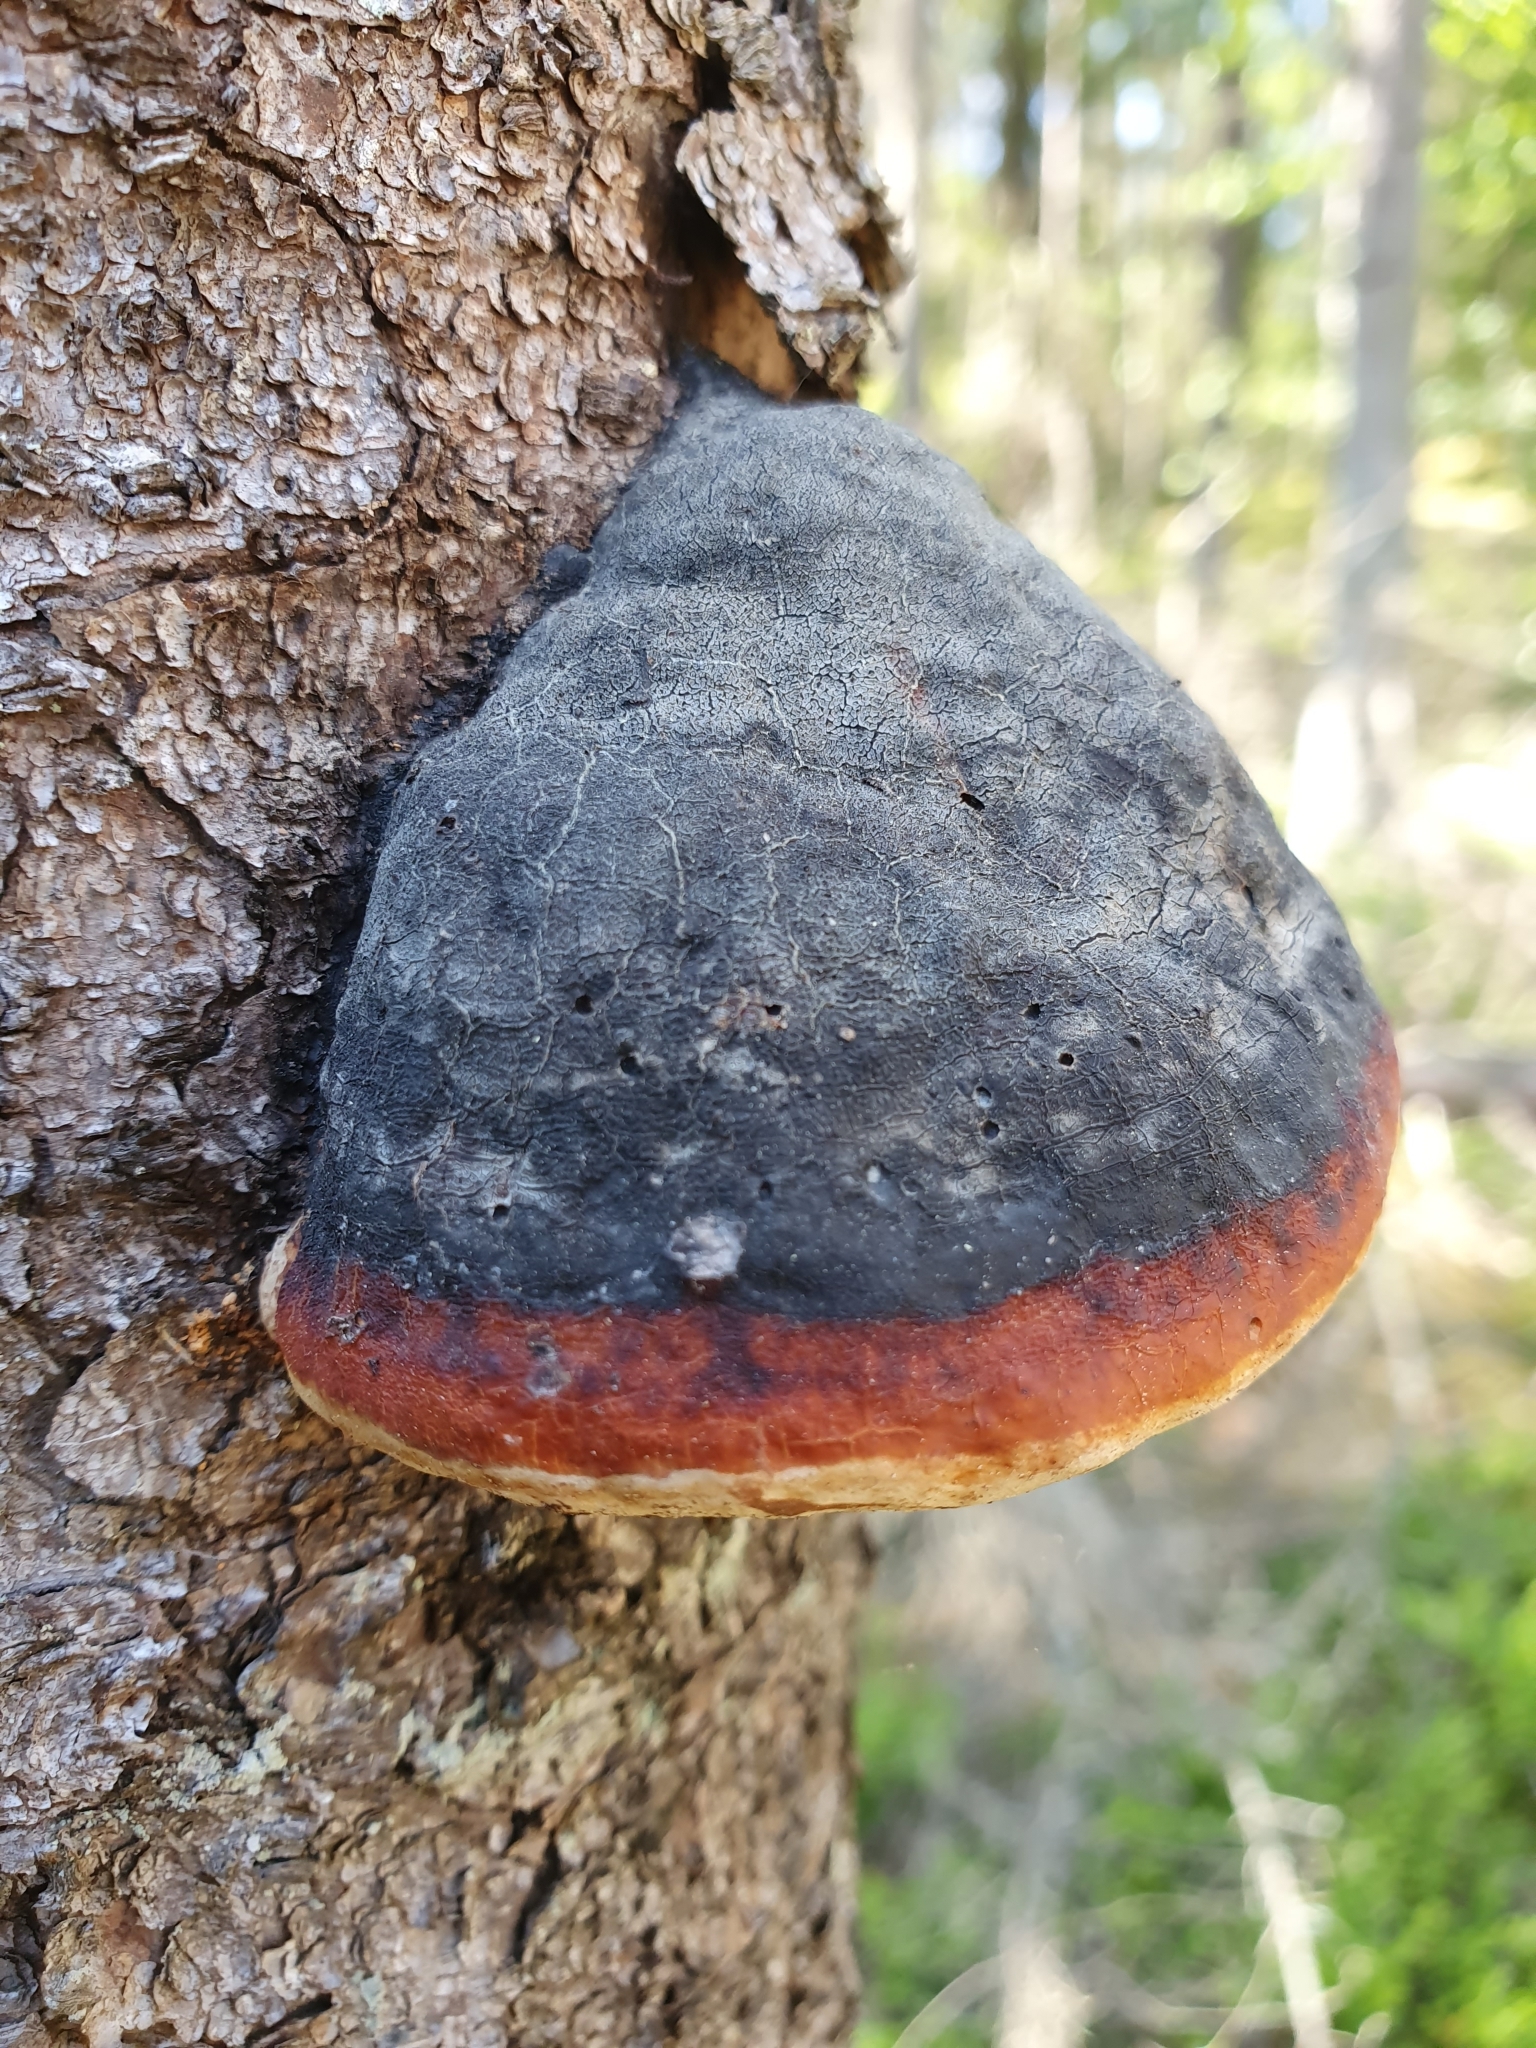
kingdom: Fungi
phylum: Basidiomycota
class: Agaricomycetes
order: Polyporales
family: Fomitopsidaceae
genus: Fomitopsis
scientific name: Fomitopsis pinicola
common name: Red-belted bracket
